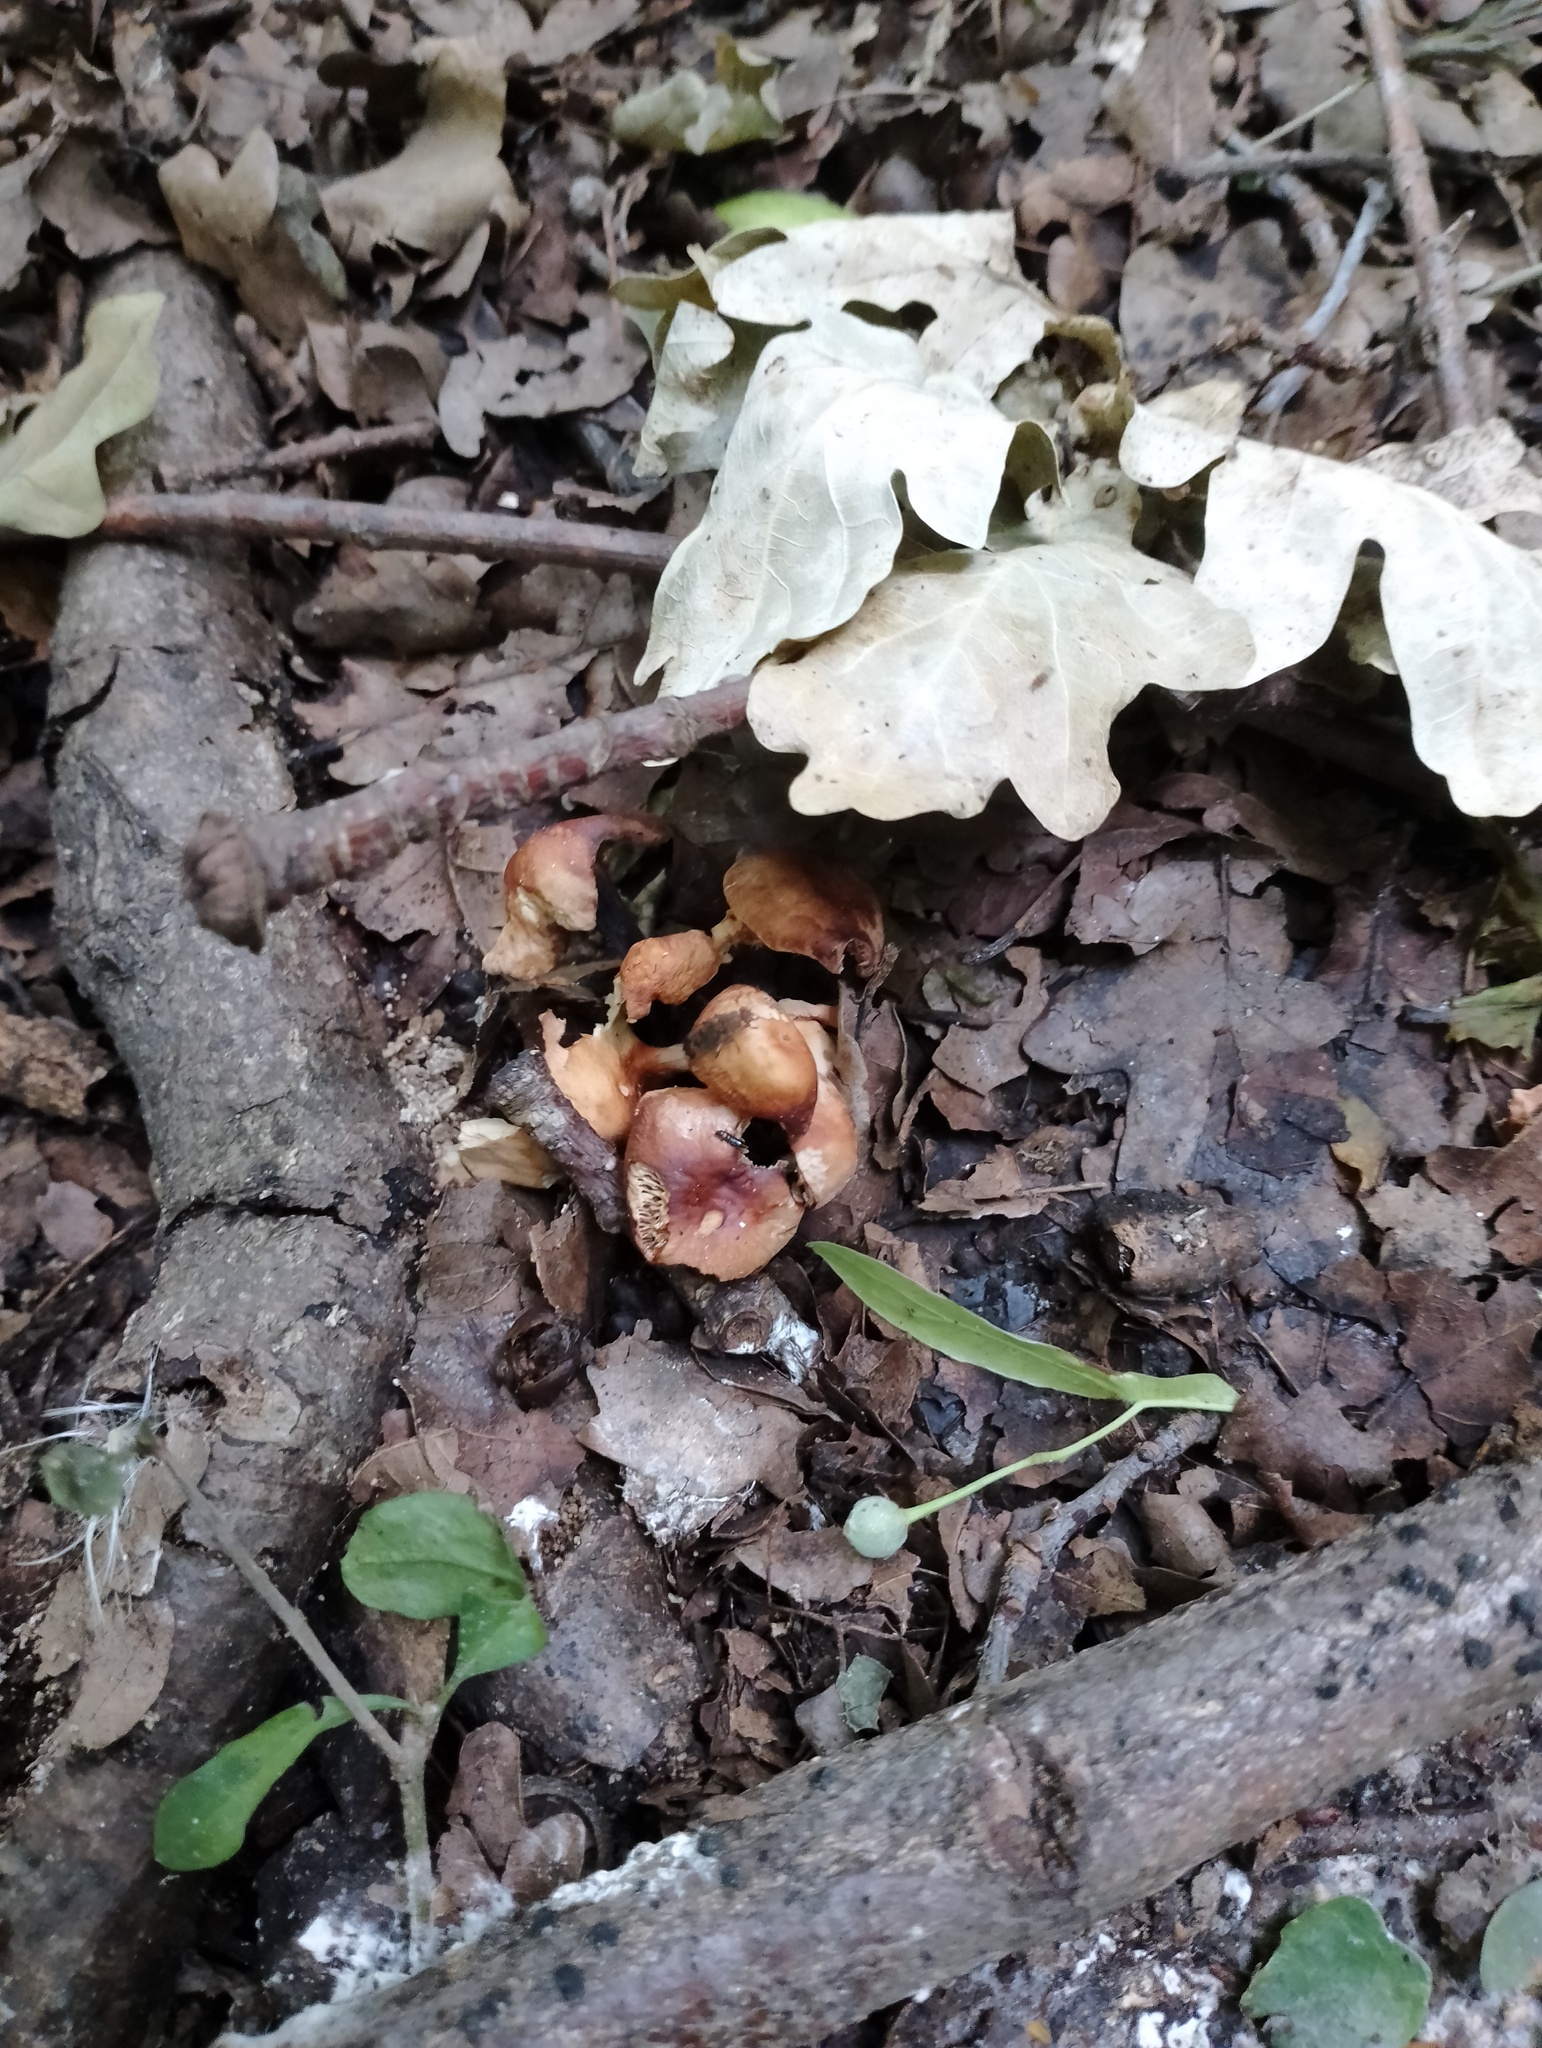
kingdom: Fungi
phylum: Basidiomycota
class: Agaricomycetes
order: Agaricales
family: Omphalotaceae
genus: Gymnopus
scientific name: Gymnopus brassicolens
